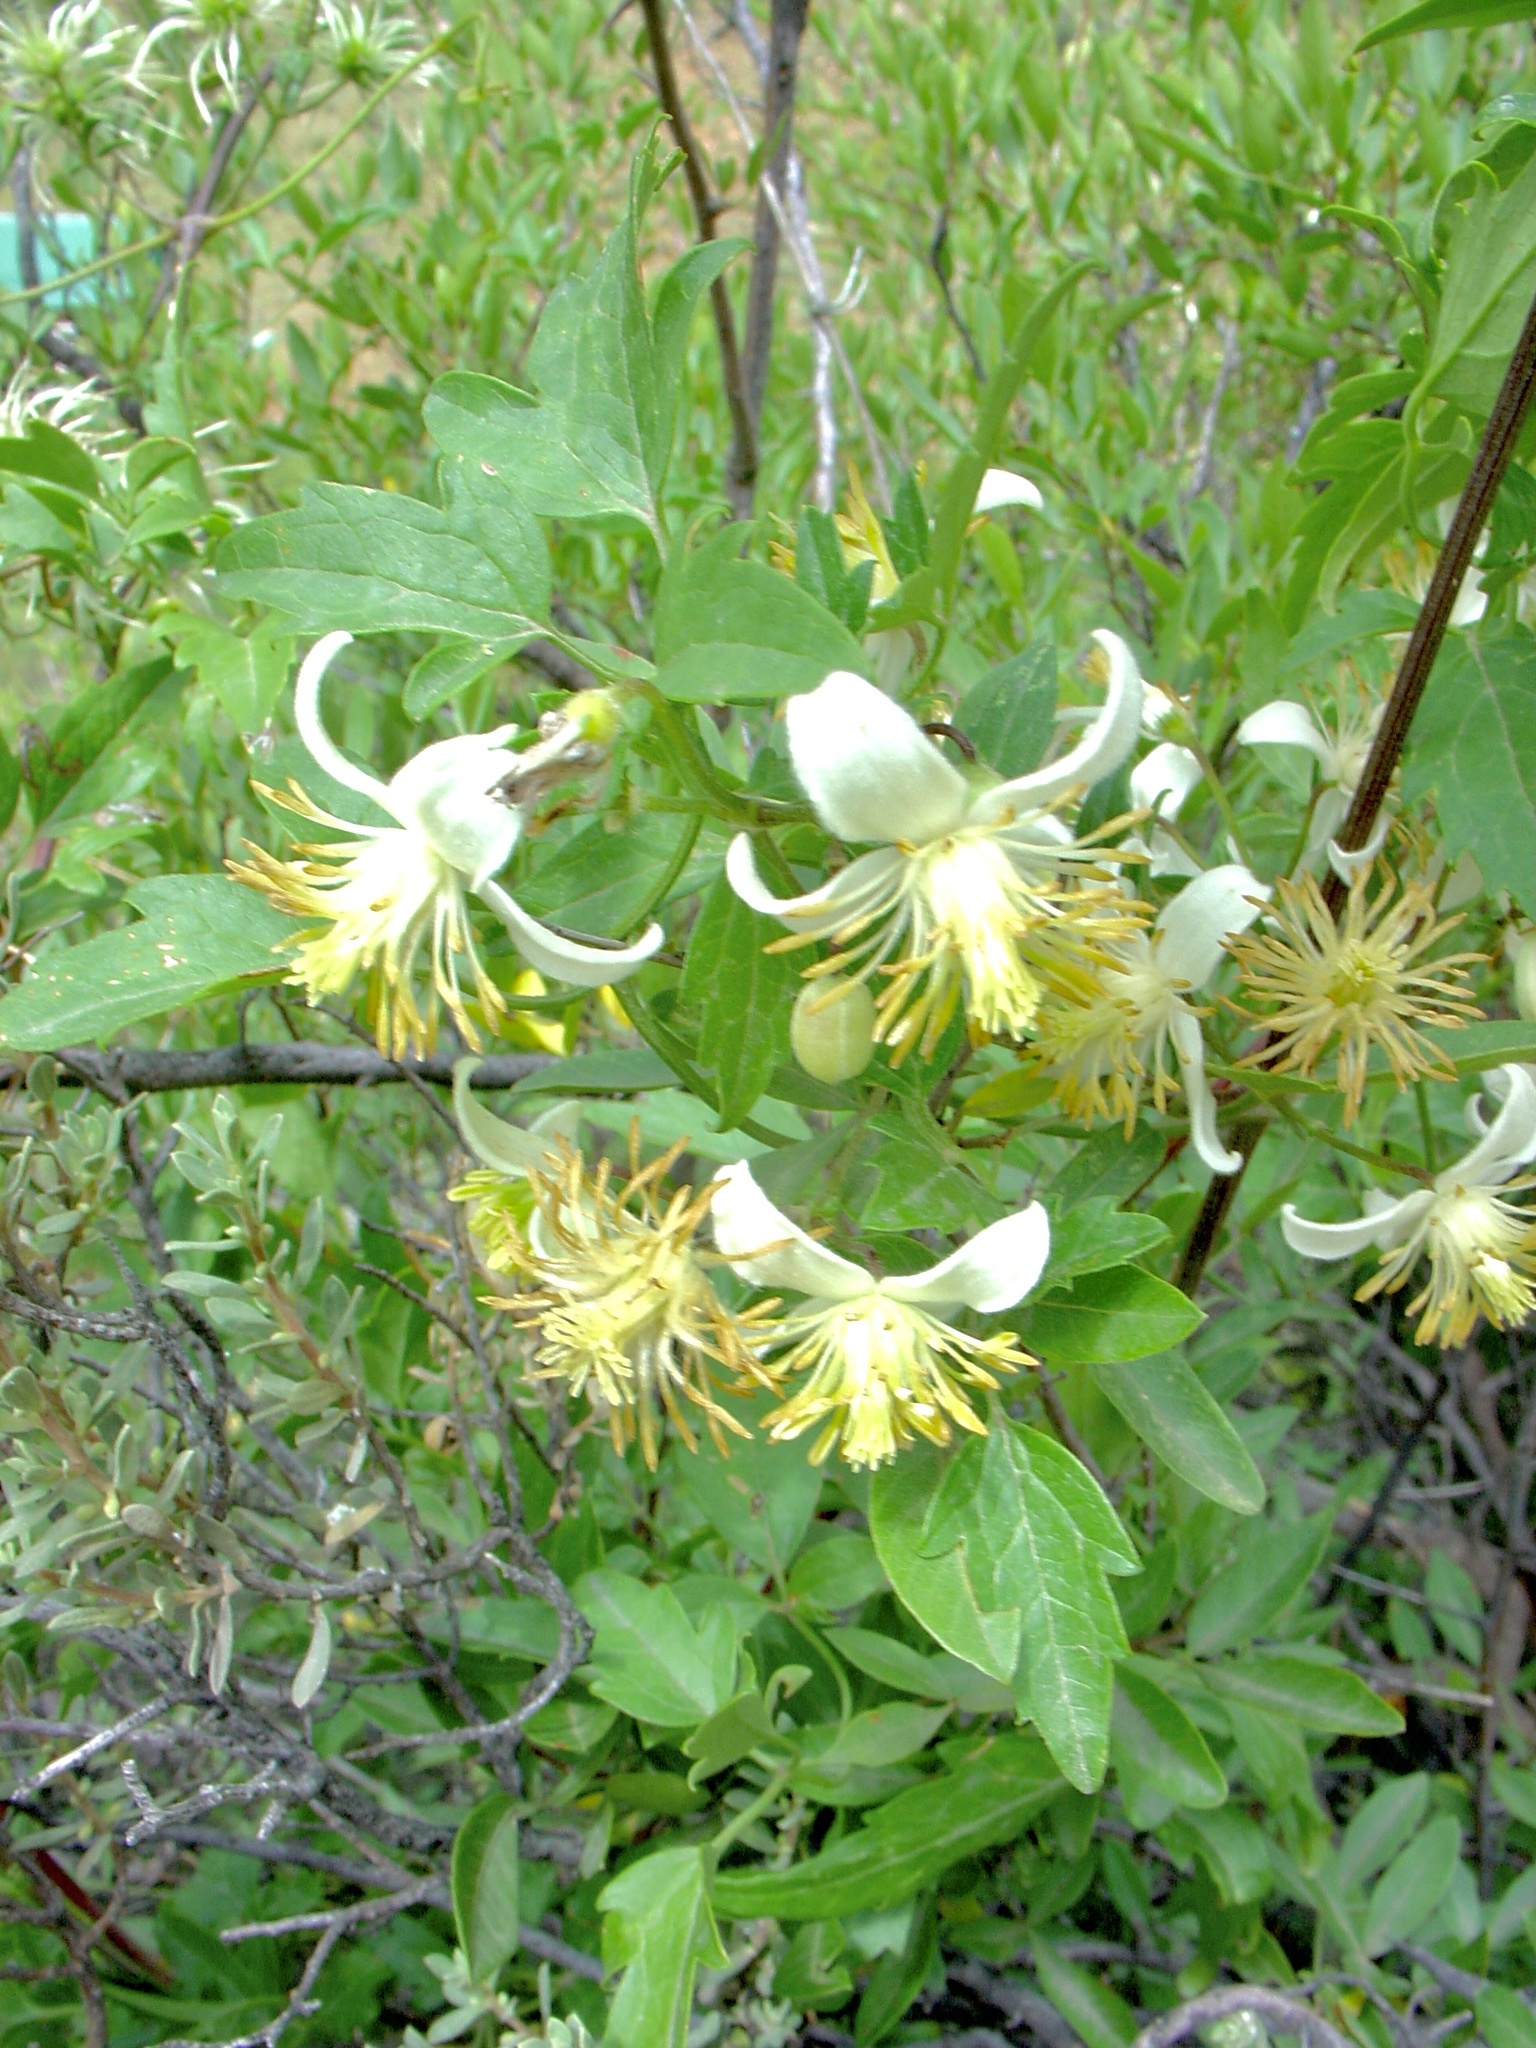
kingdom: Plantae
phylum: Tracheophyta
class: Magnoliopsida
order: Ranunculales
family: Ranunculaceae
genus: Clematis
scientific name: Clematis brachiata
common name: Traveler's-joy
